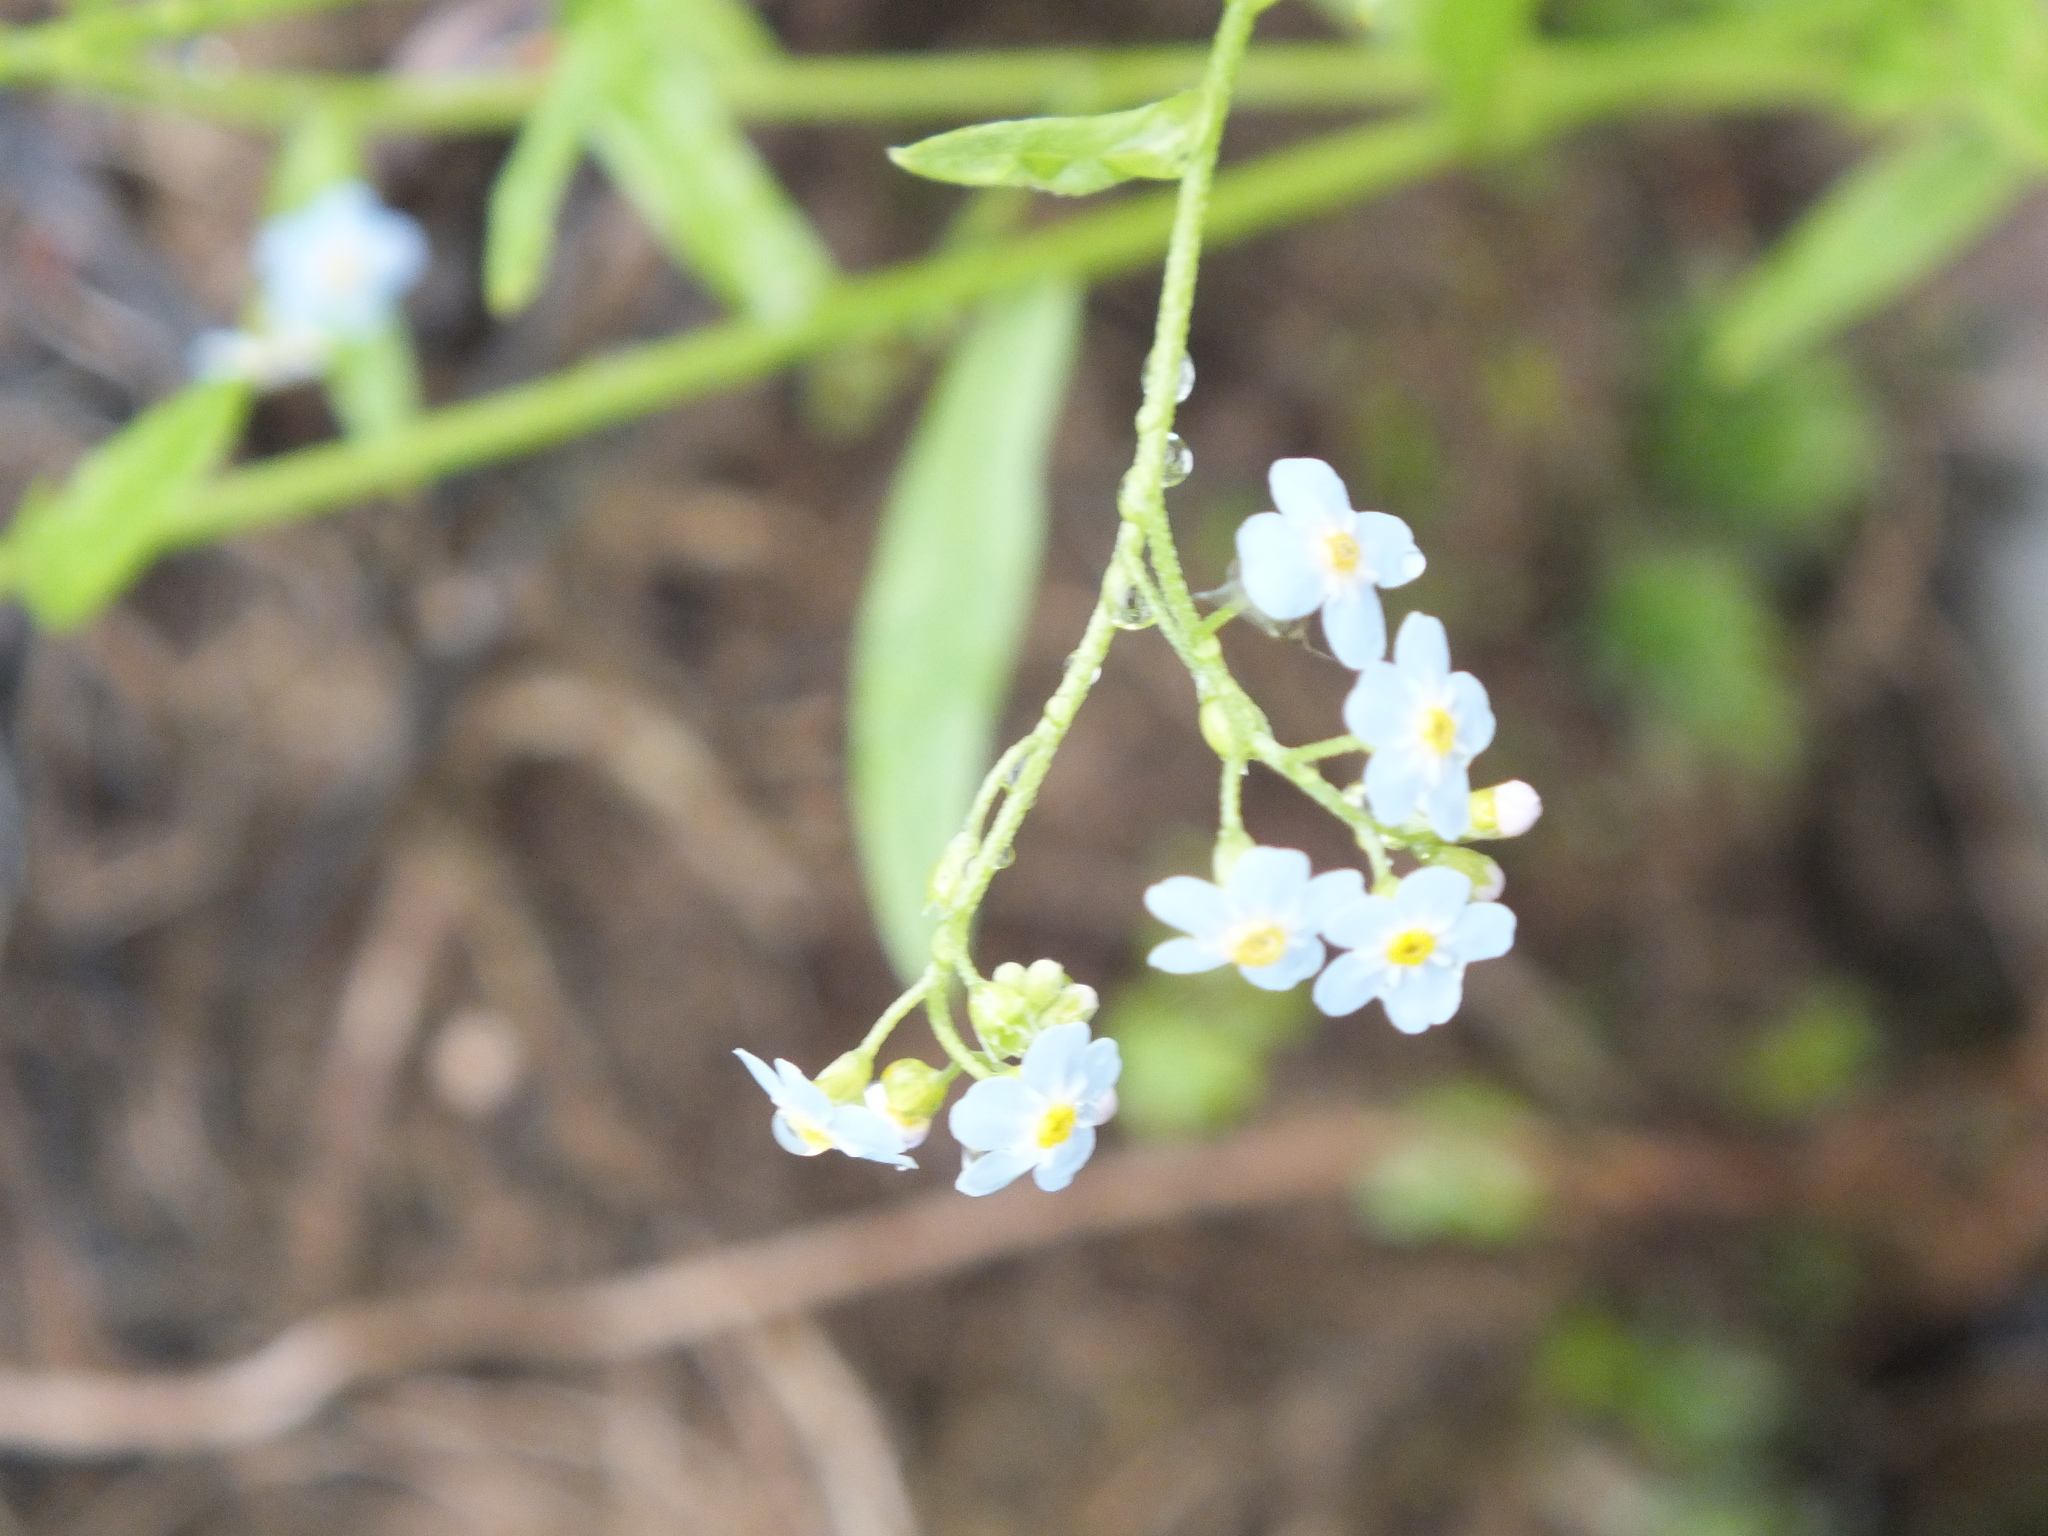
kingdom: Plantae
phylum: Tracheophyta
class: Magnoliopsida
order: Boraginales
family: Boraginaceae
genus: Myosotis
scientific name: Myosotis scorpioides
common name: Water forget-me-not
